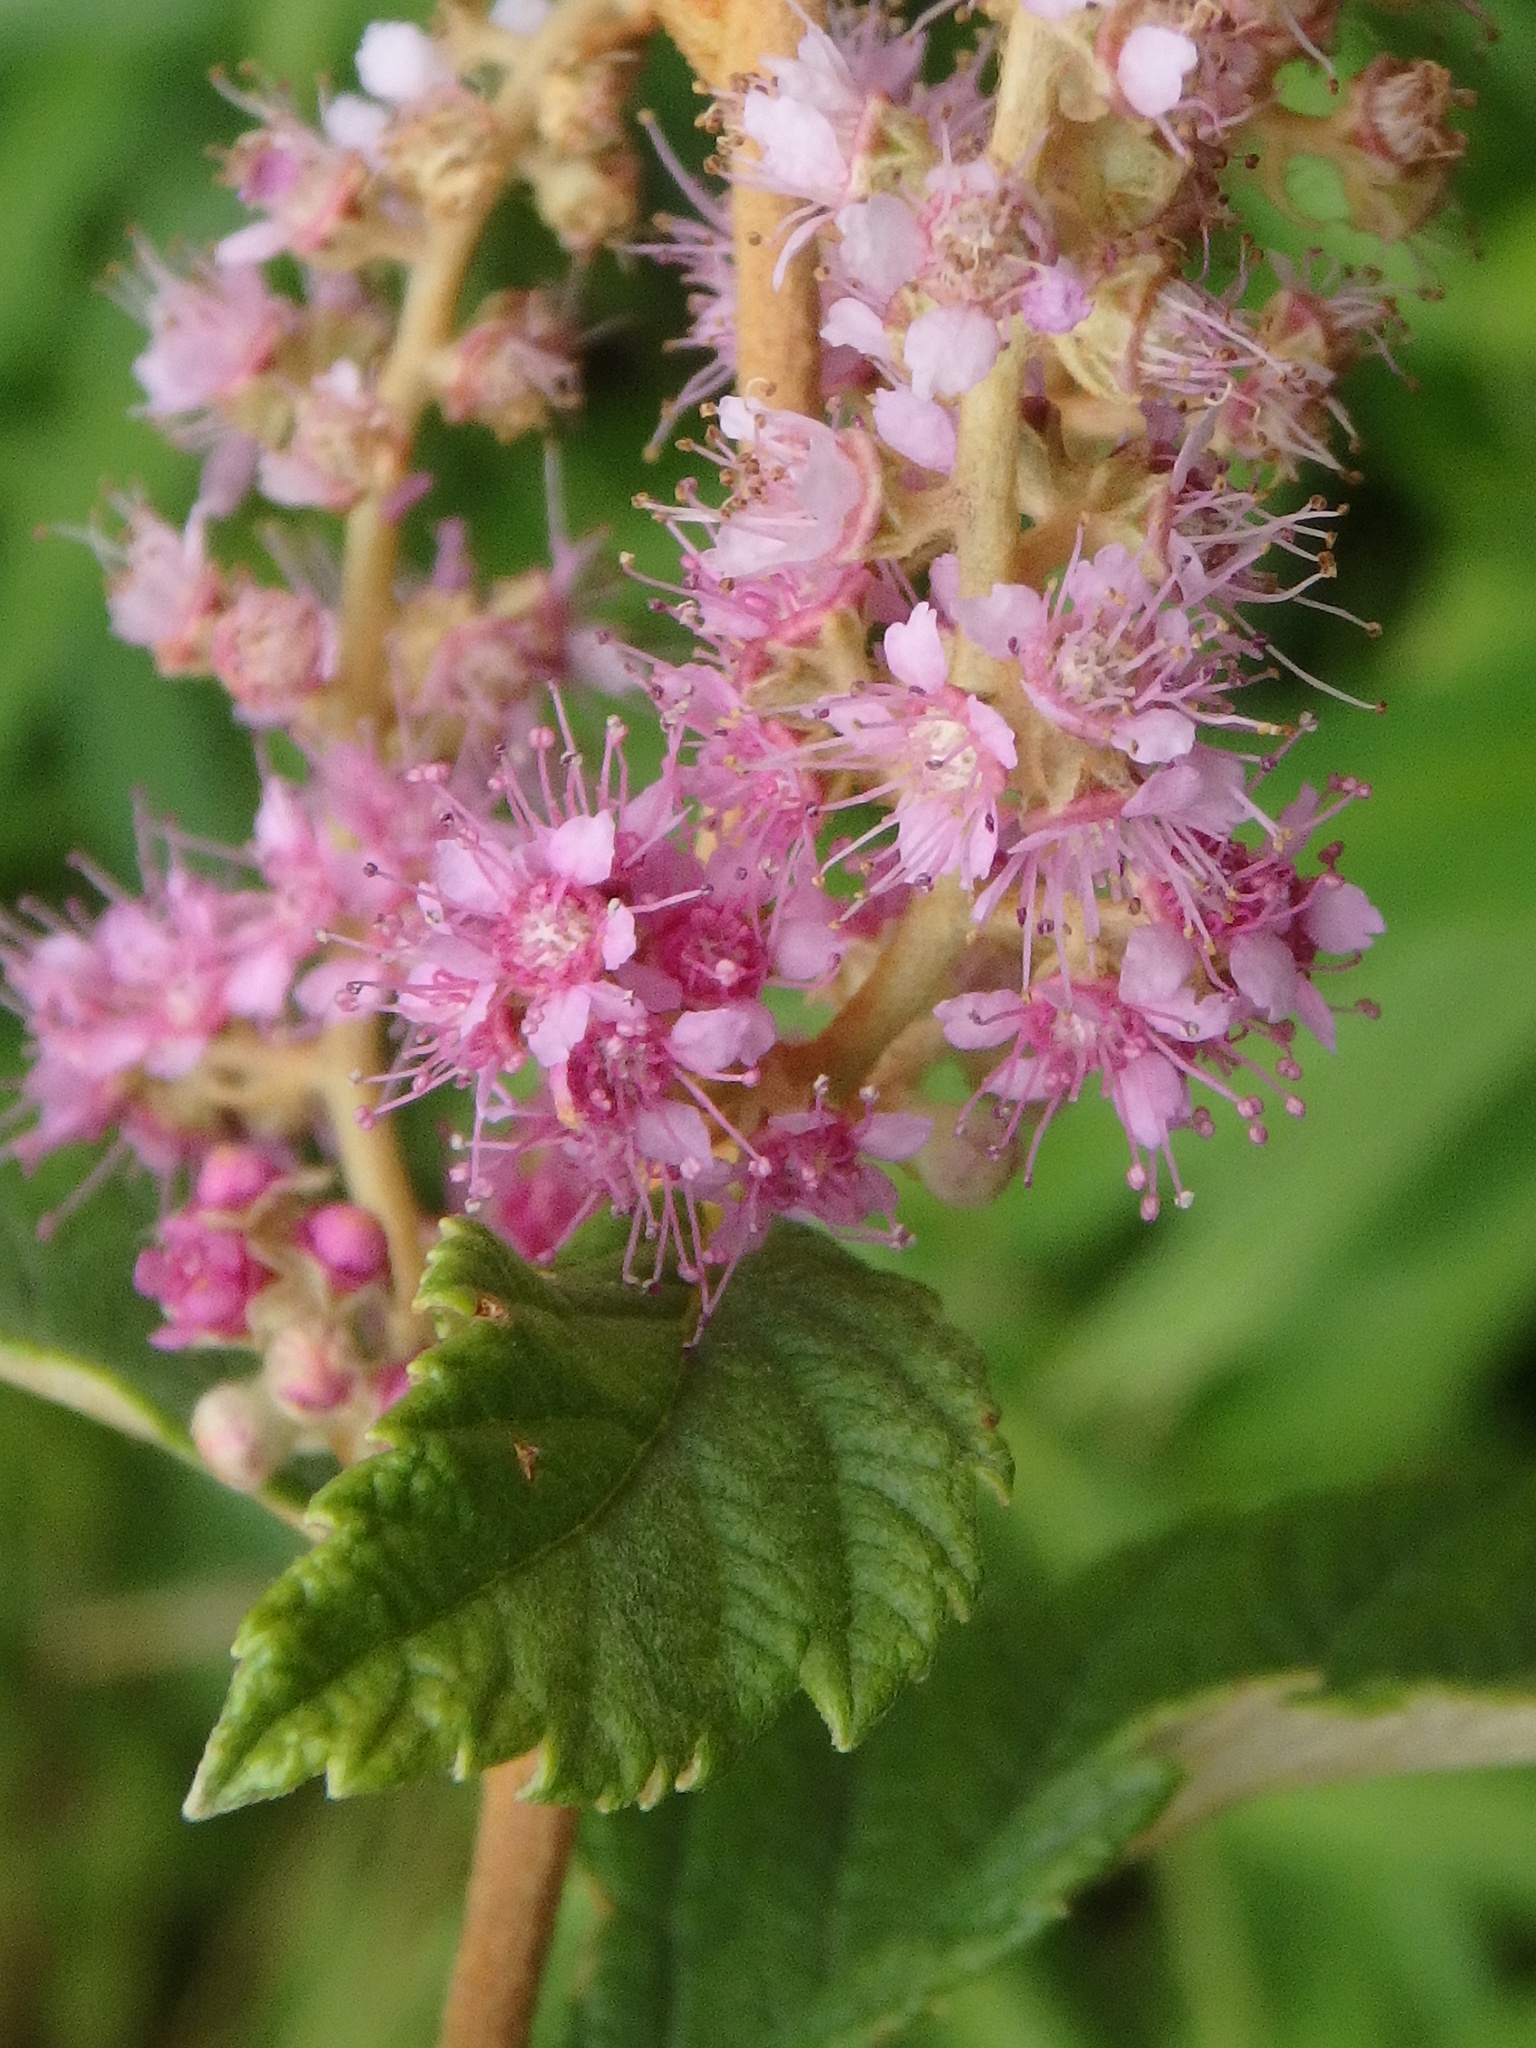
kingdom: Plantae
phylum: Tracheophyta
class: Magnoliopsida
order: Rosales
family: Rosaceae
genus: Spiraea
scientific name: Spiraea tomentosa
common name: Hardhack
